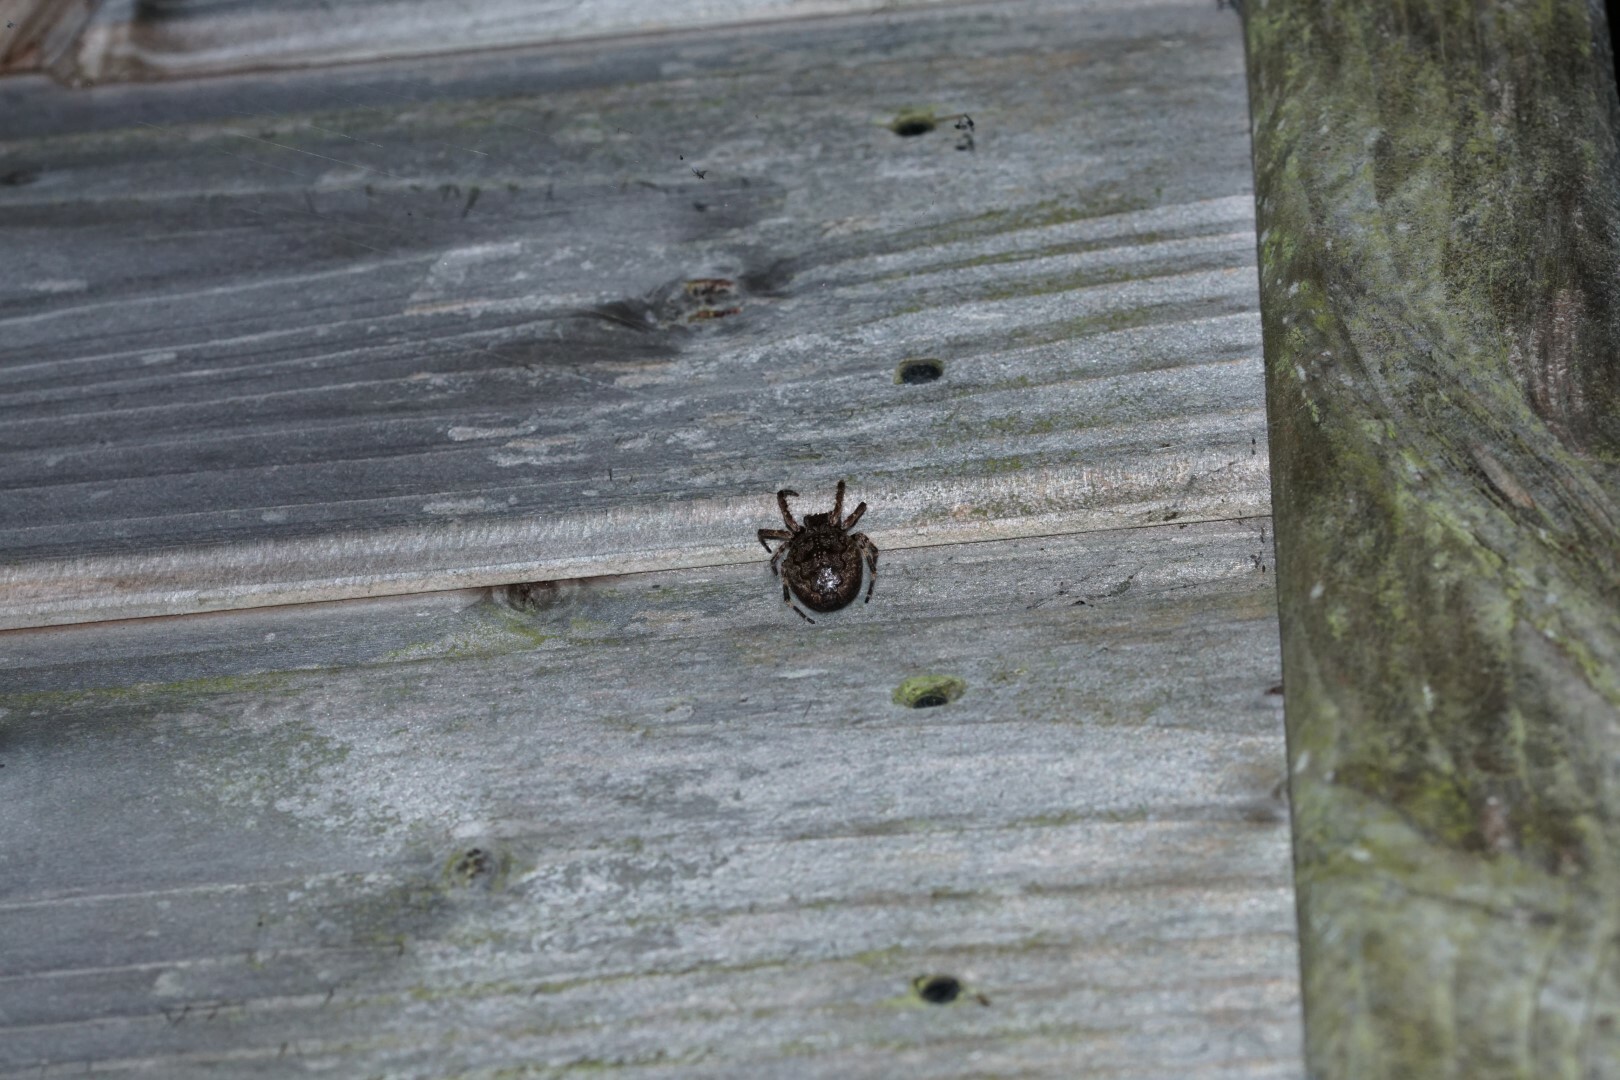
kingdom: Animalia
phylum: Arthropoda
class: Arachnida
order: Araneae
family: Araneidae
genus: Nuctenea
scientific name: Nuctenea umbratica
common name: Toad spider
